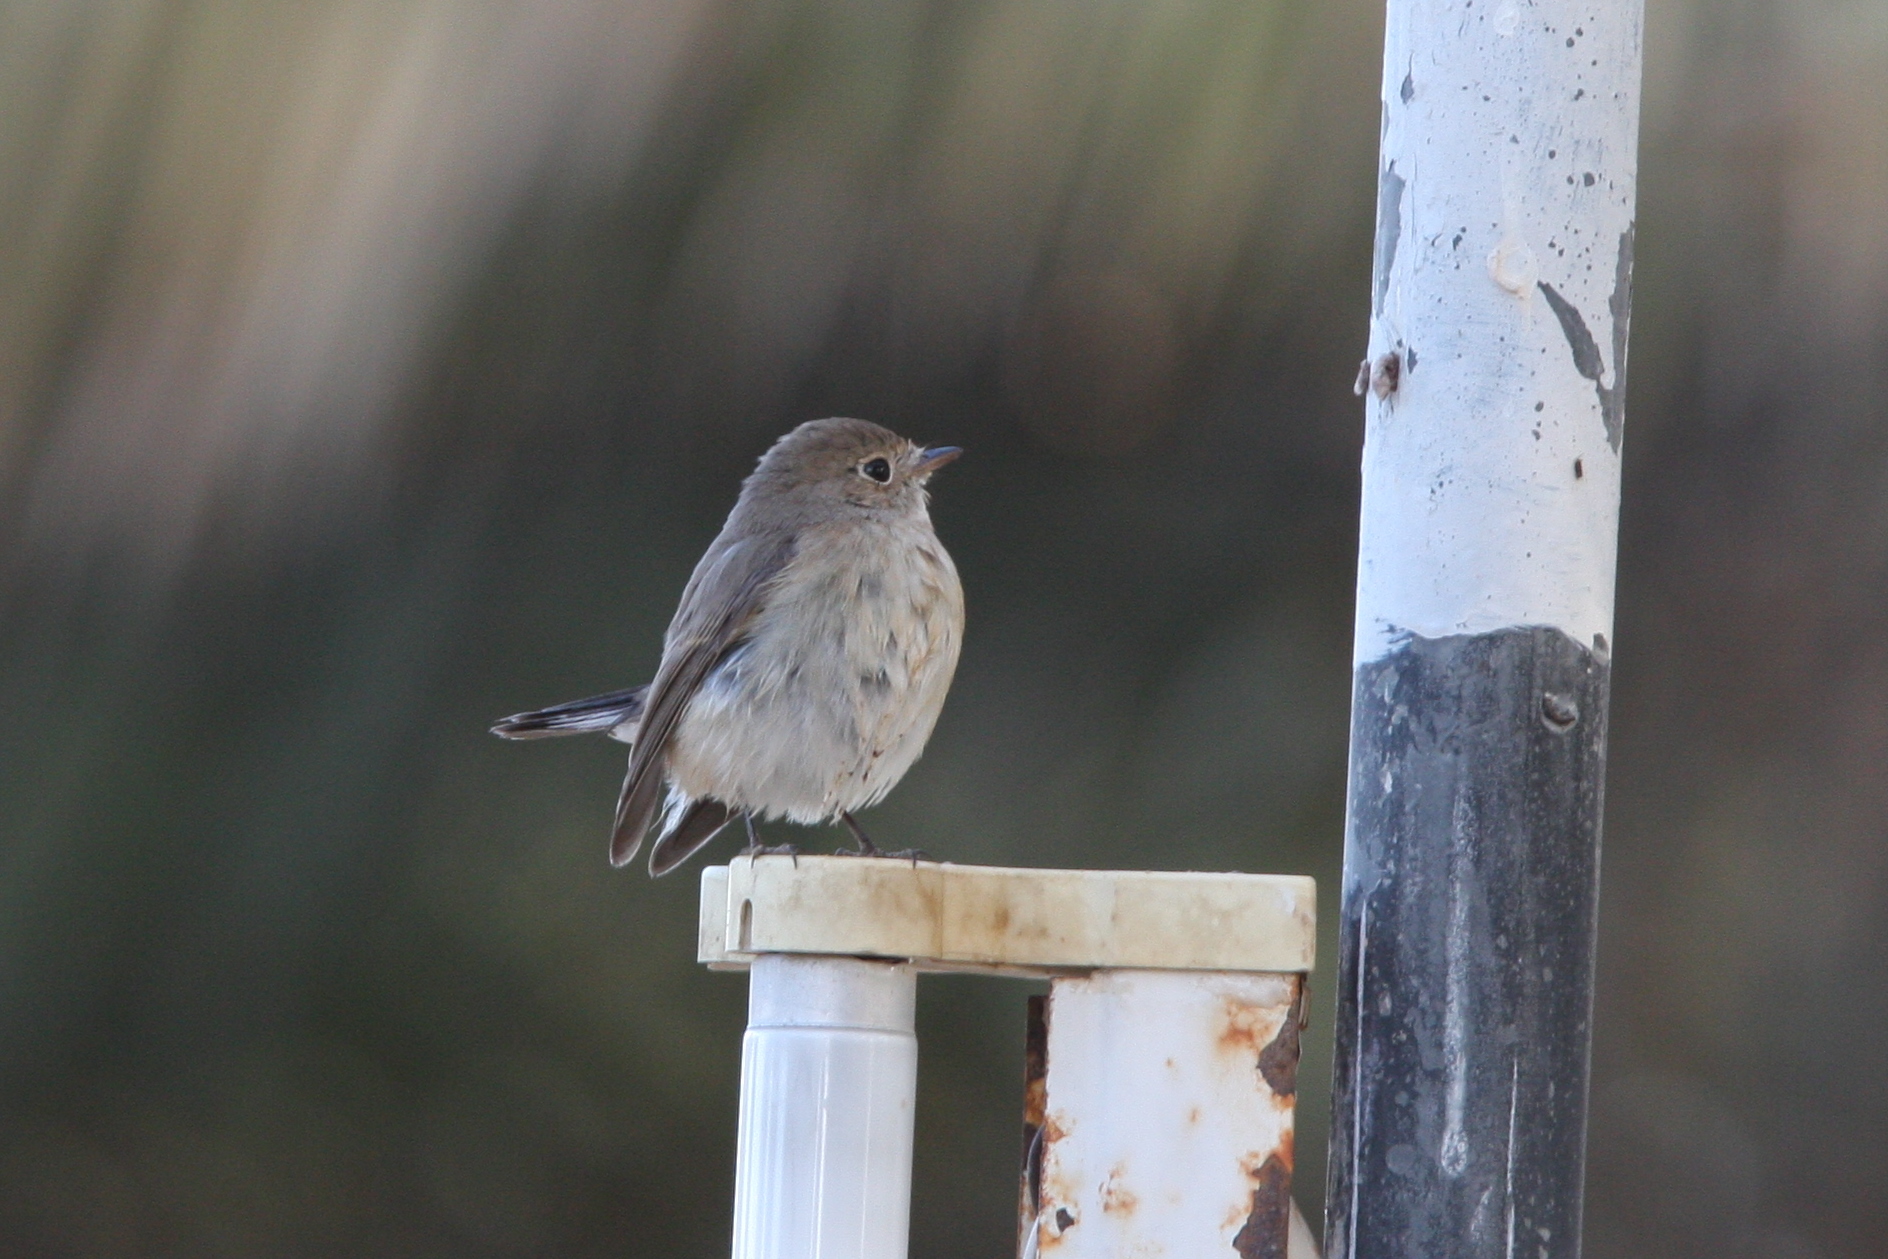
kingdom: Animalia
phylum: Chordata
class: Aves
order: Passeriformes
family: Muscicapidae
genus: Ficedula
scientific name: Ficedula parva
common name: Red-breasted flycatcher
